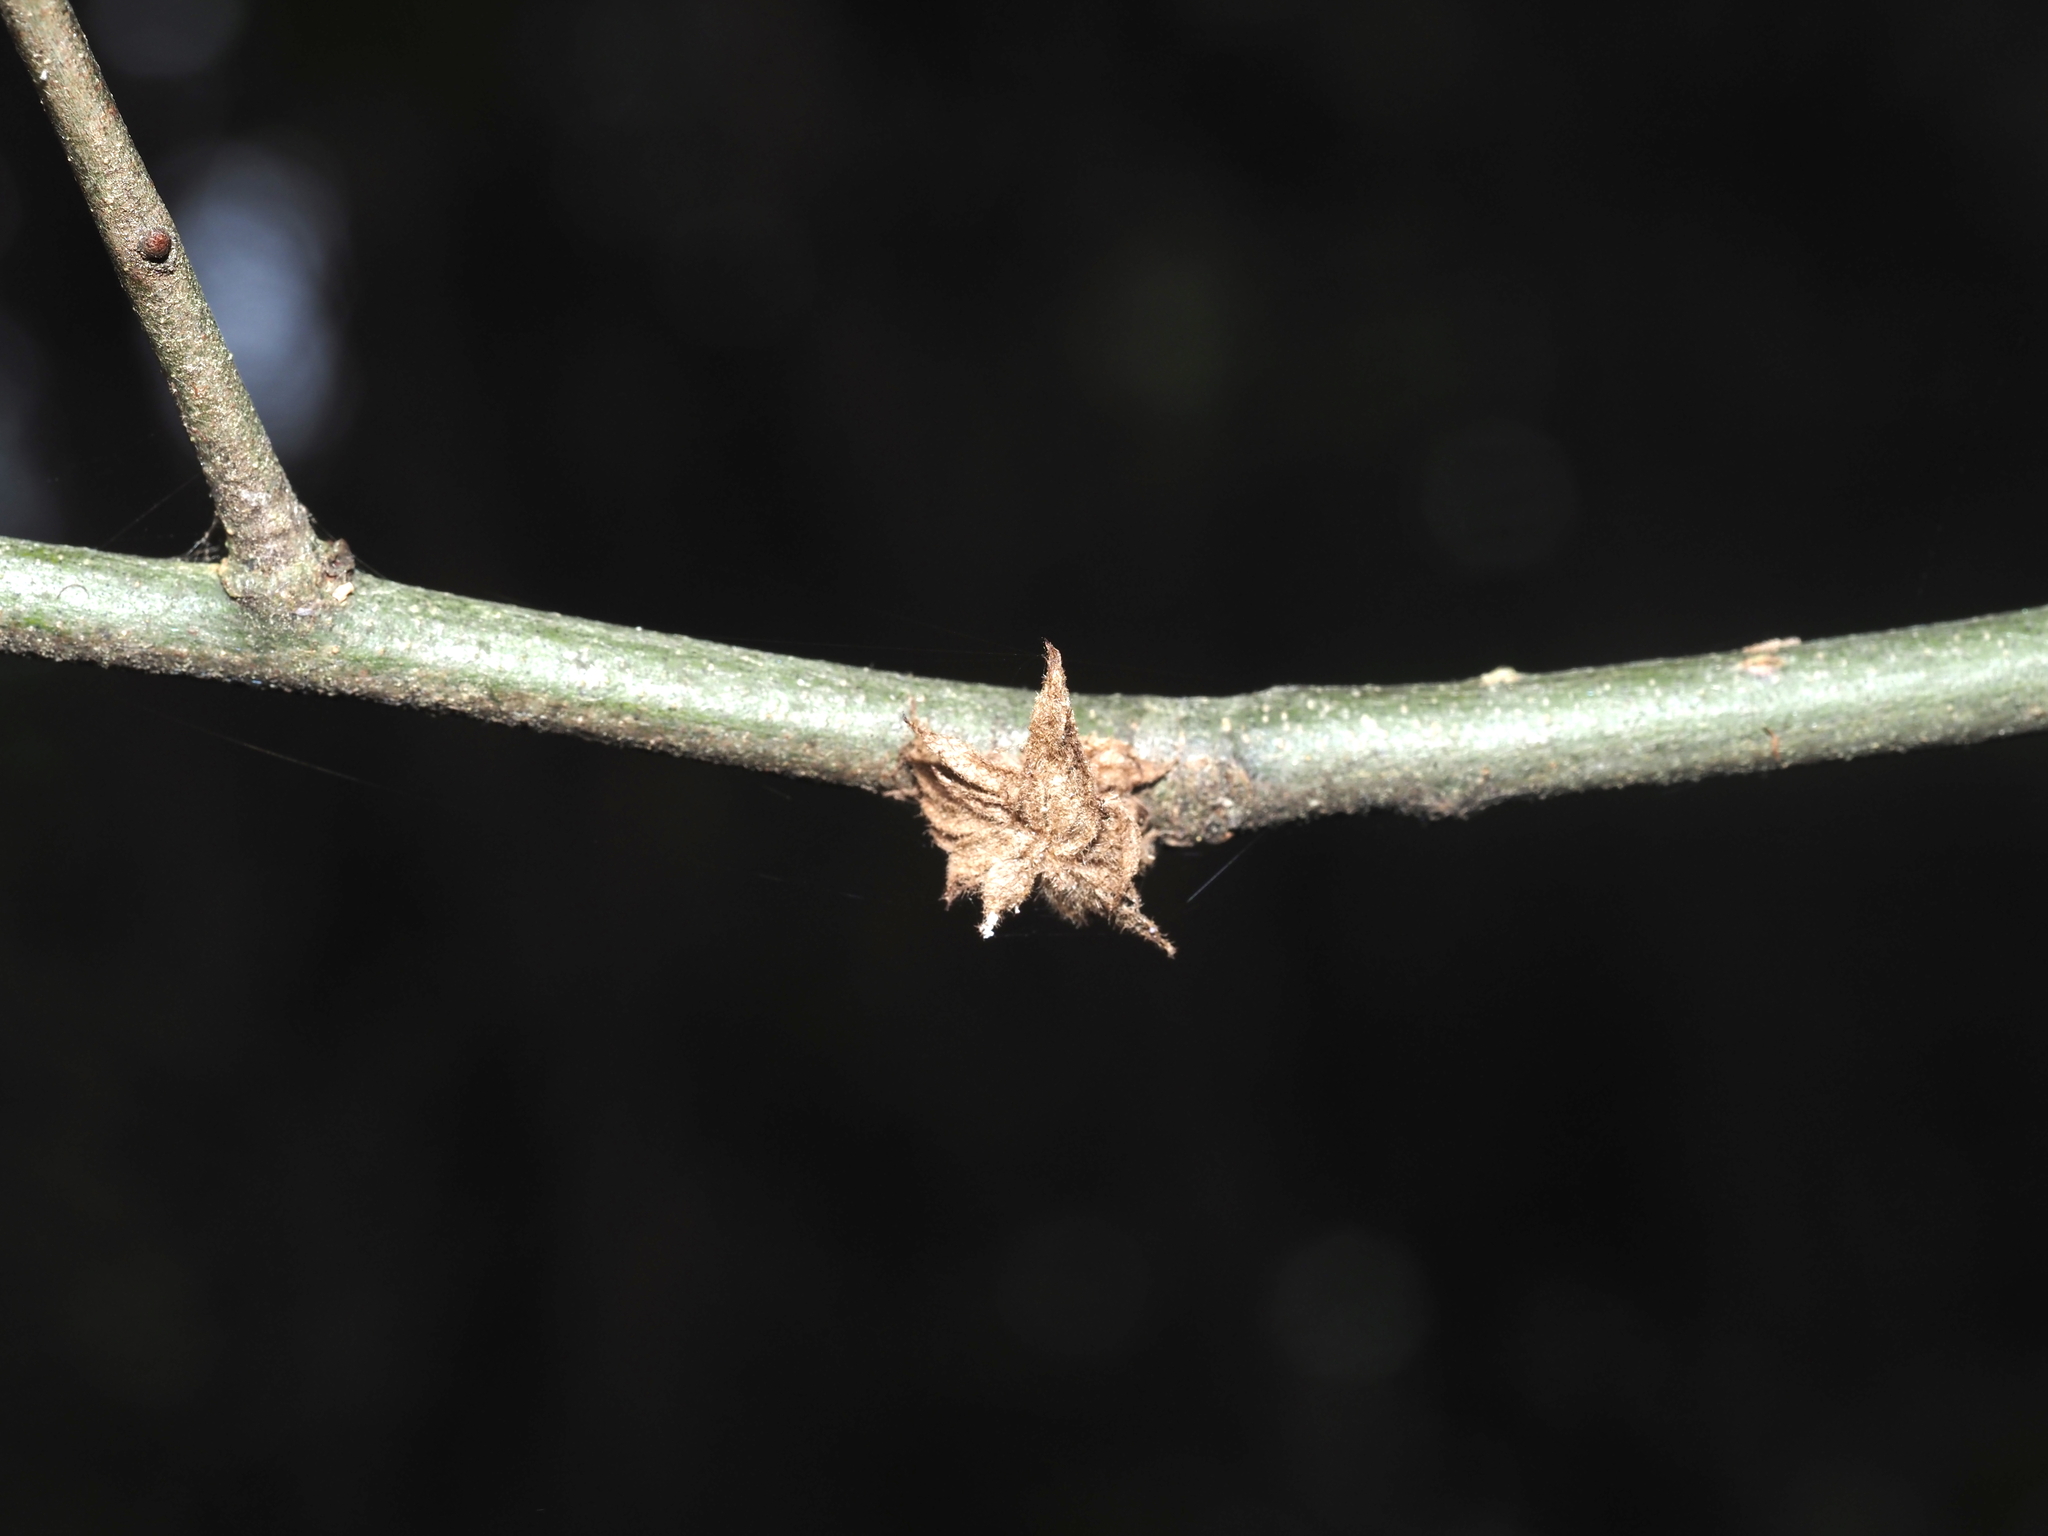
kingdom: Animalia
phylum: Arthropoda
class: Insecta
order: Hymenoptera
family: Cynipidae
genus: Dryocosmus
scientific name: Dryocosmus
